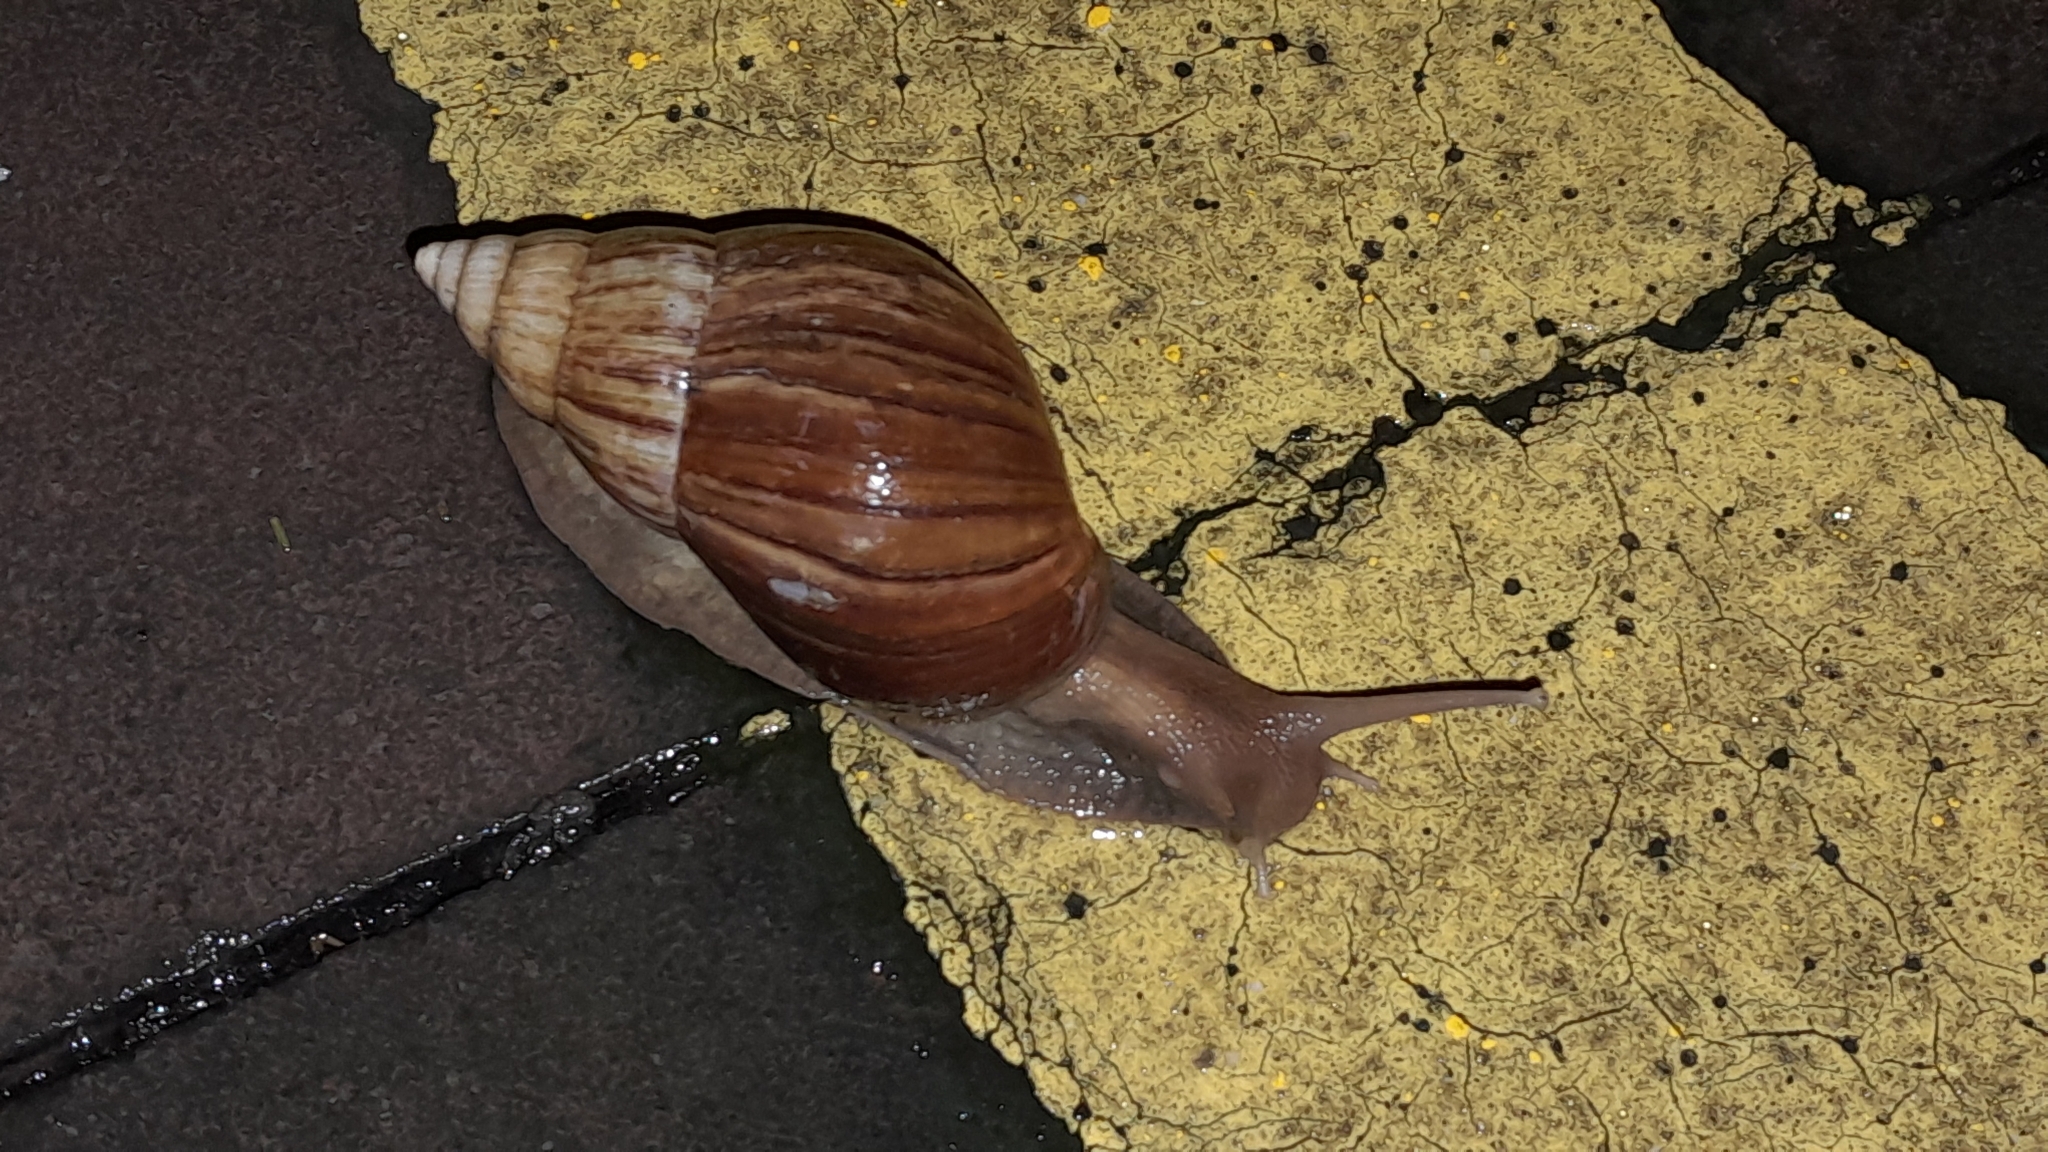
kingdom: Animalia
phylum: Mollusca
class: Gastropoda
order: Stylommatophora
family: Achatinidae
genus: Lissachatina
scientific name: Lissachatina fulica
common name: Giant african snail
